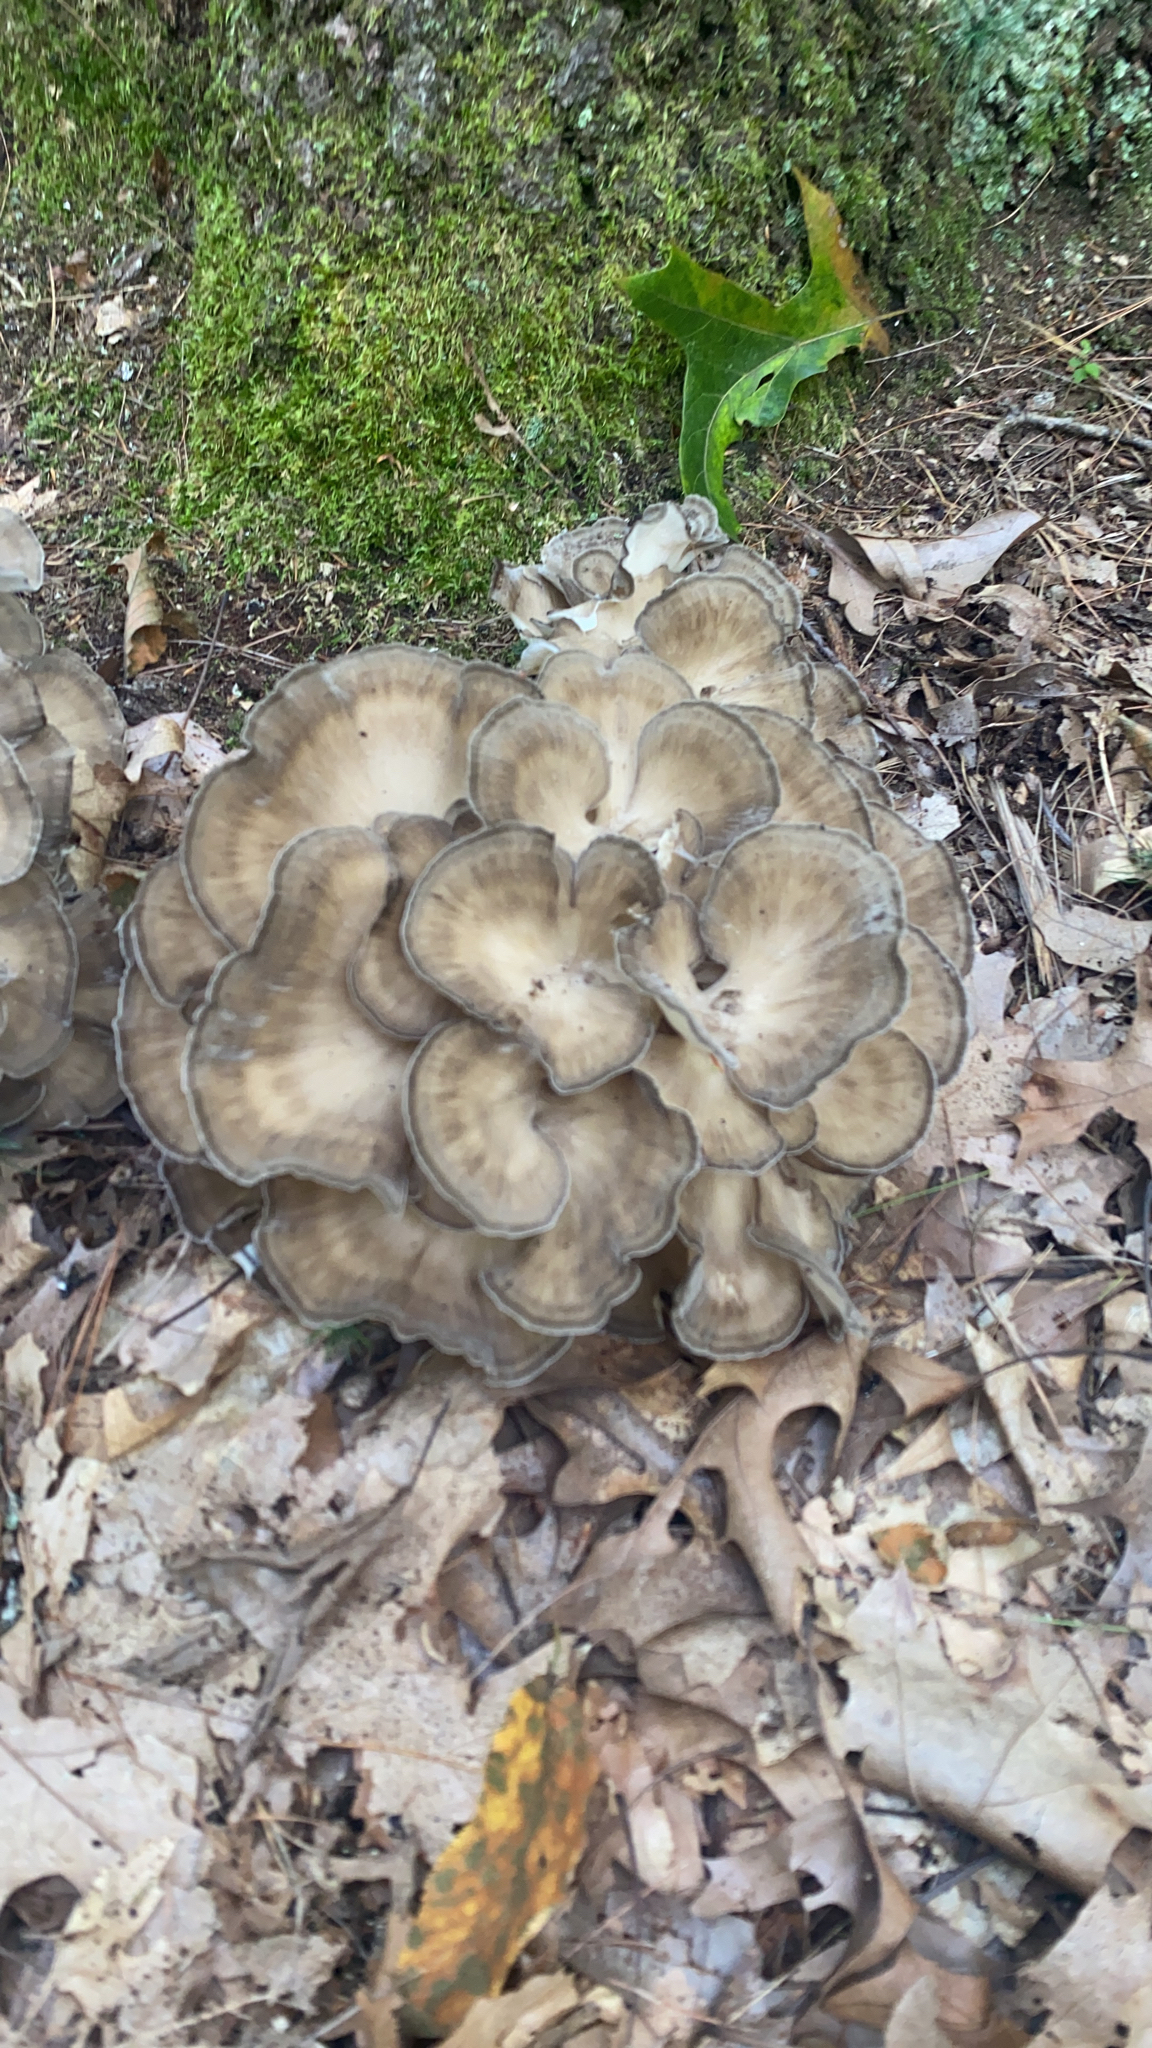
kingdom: Fungi
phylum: Basidiomycota
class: Agaricomycetes
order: Polyporales
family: Grifolaceae
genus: Grifola
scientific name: Grifola frondosa
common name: Hen of the woods
